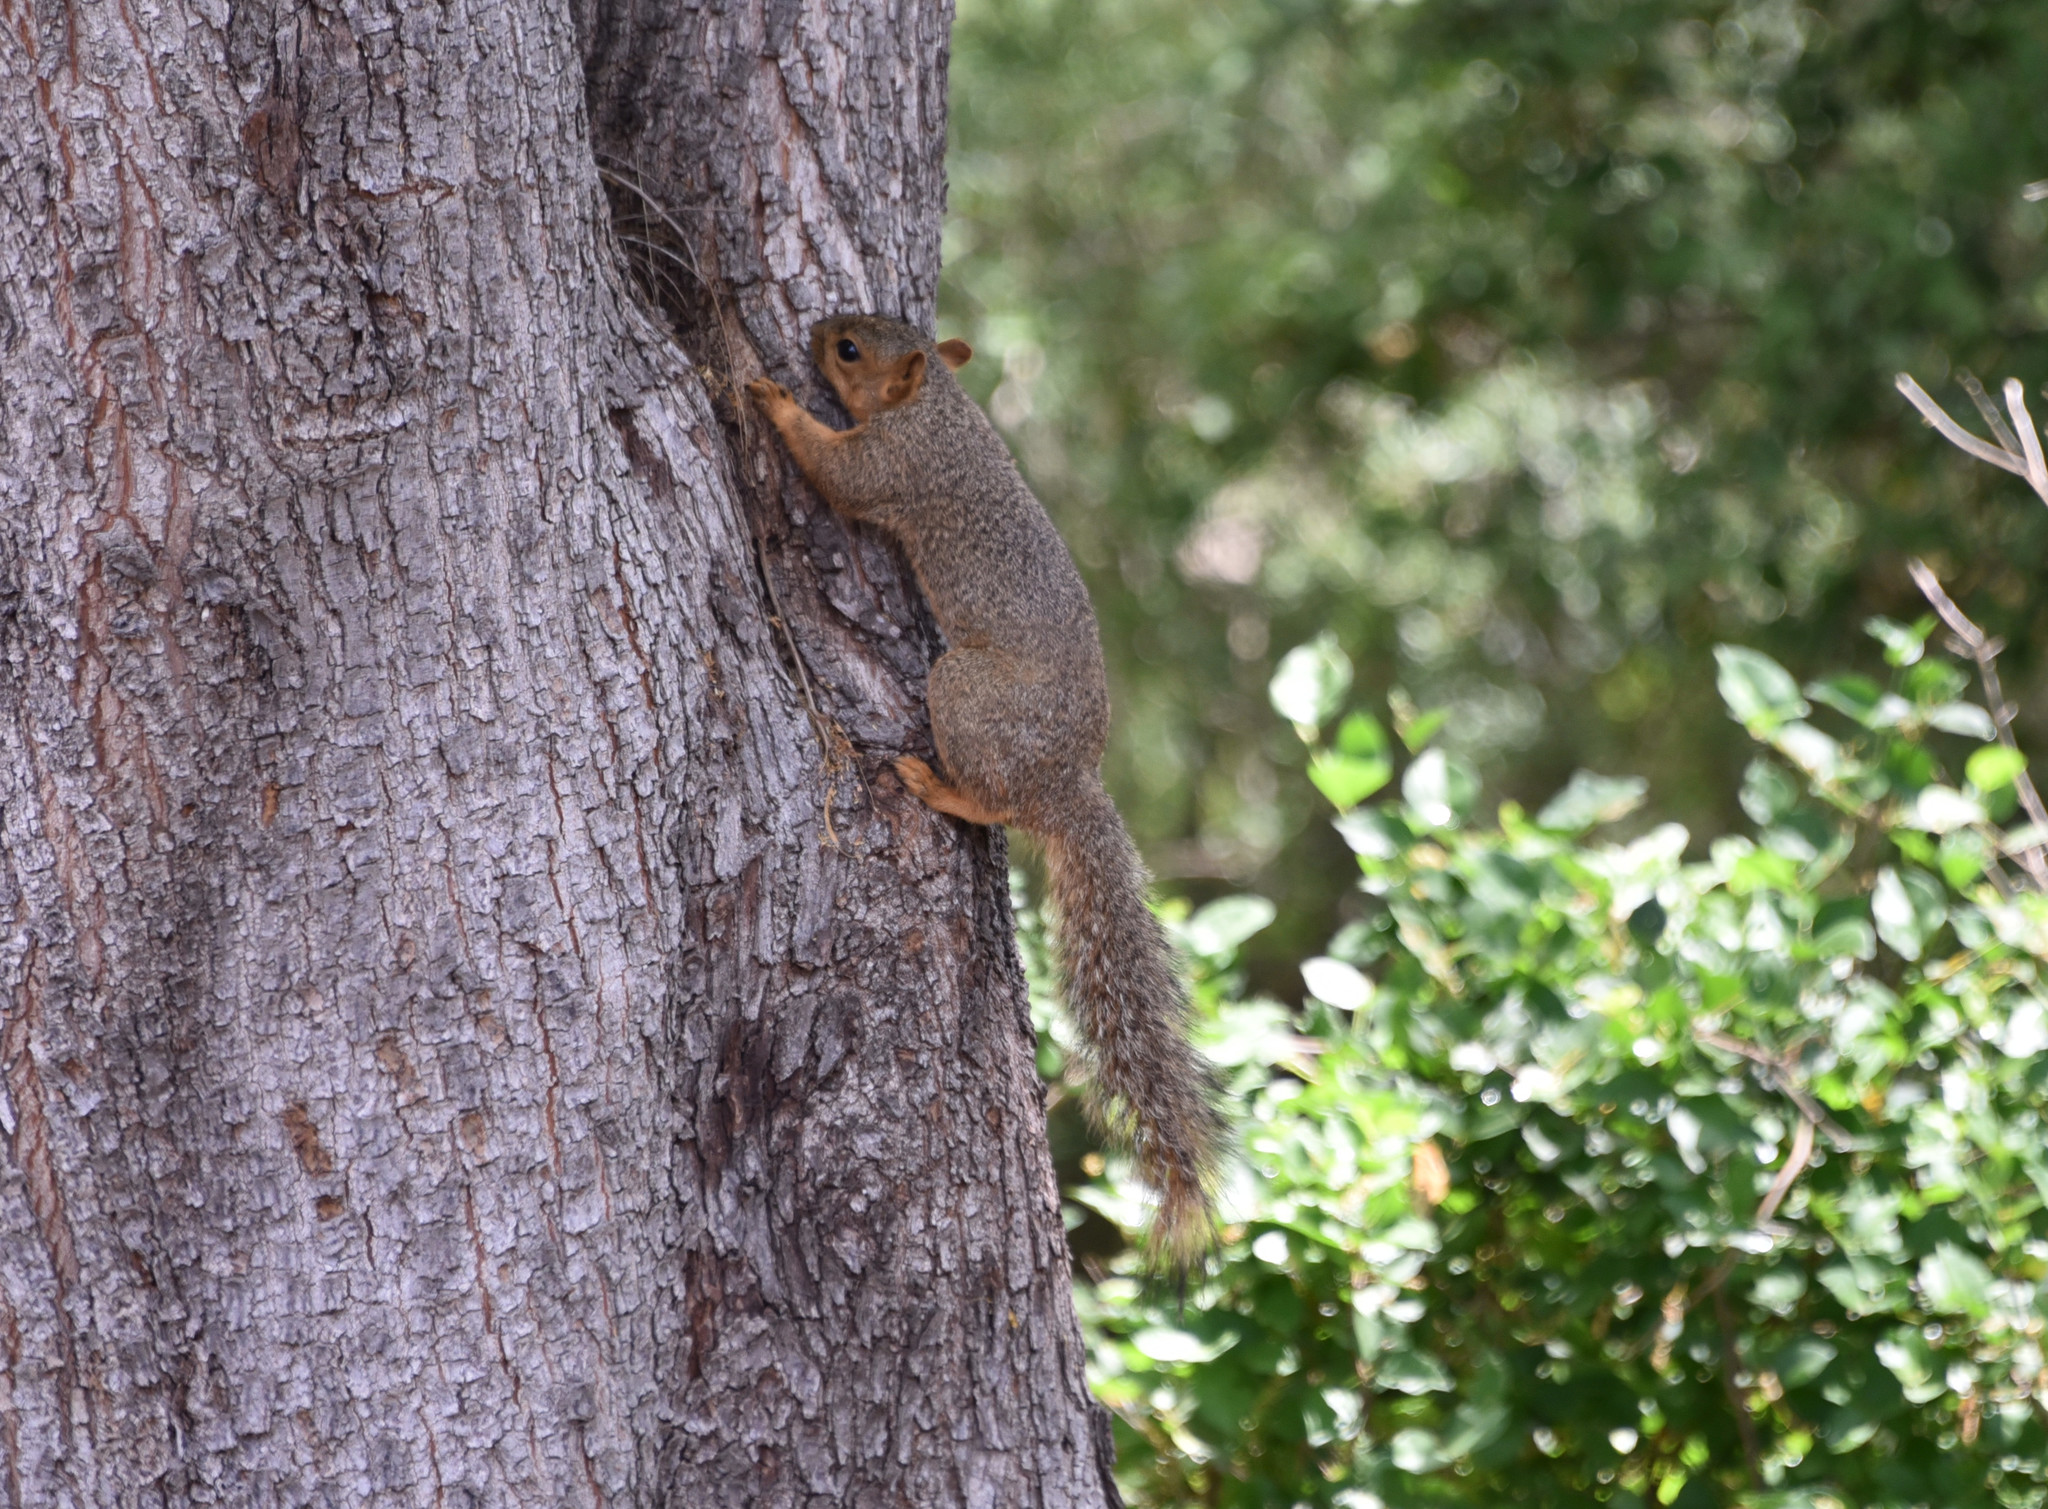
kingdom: Animalia
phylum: Chordata
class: Mammalia
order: Rodentia
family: Sciuridae
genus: Sciurus
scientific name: Sciurus niger
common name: Fox squirrel
